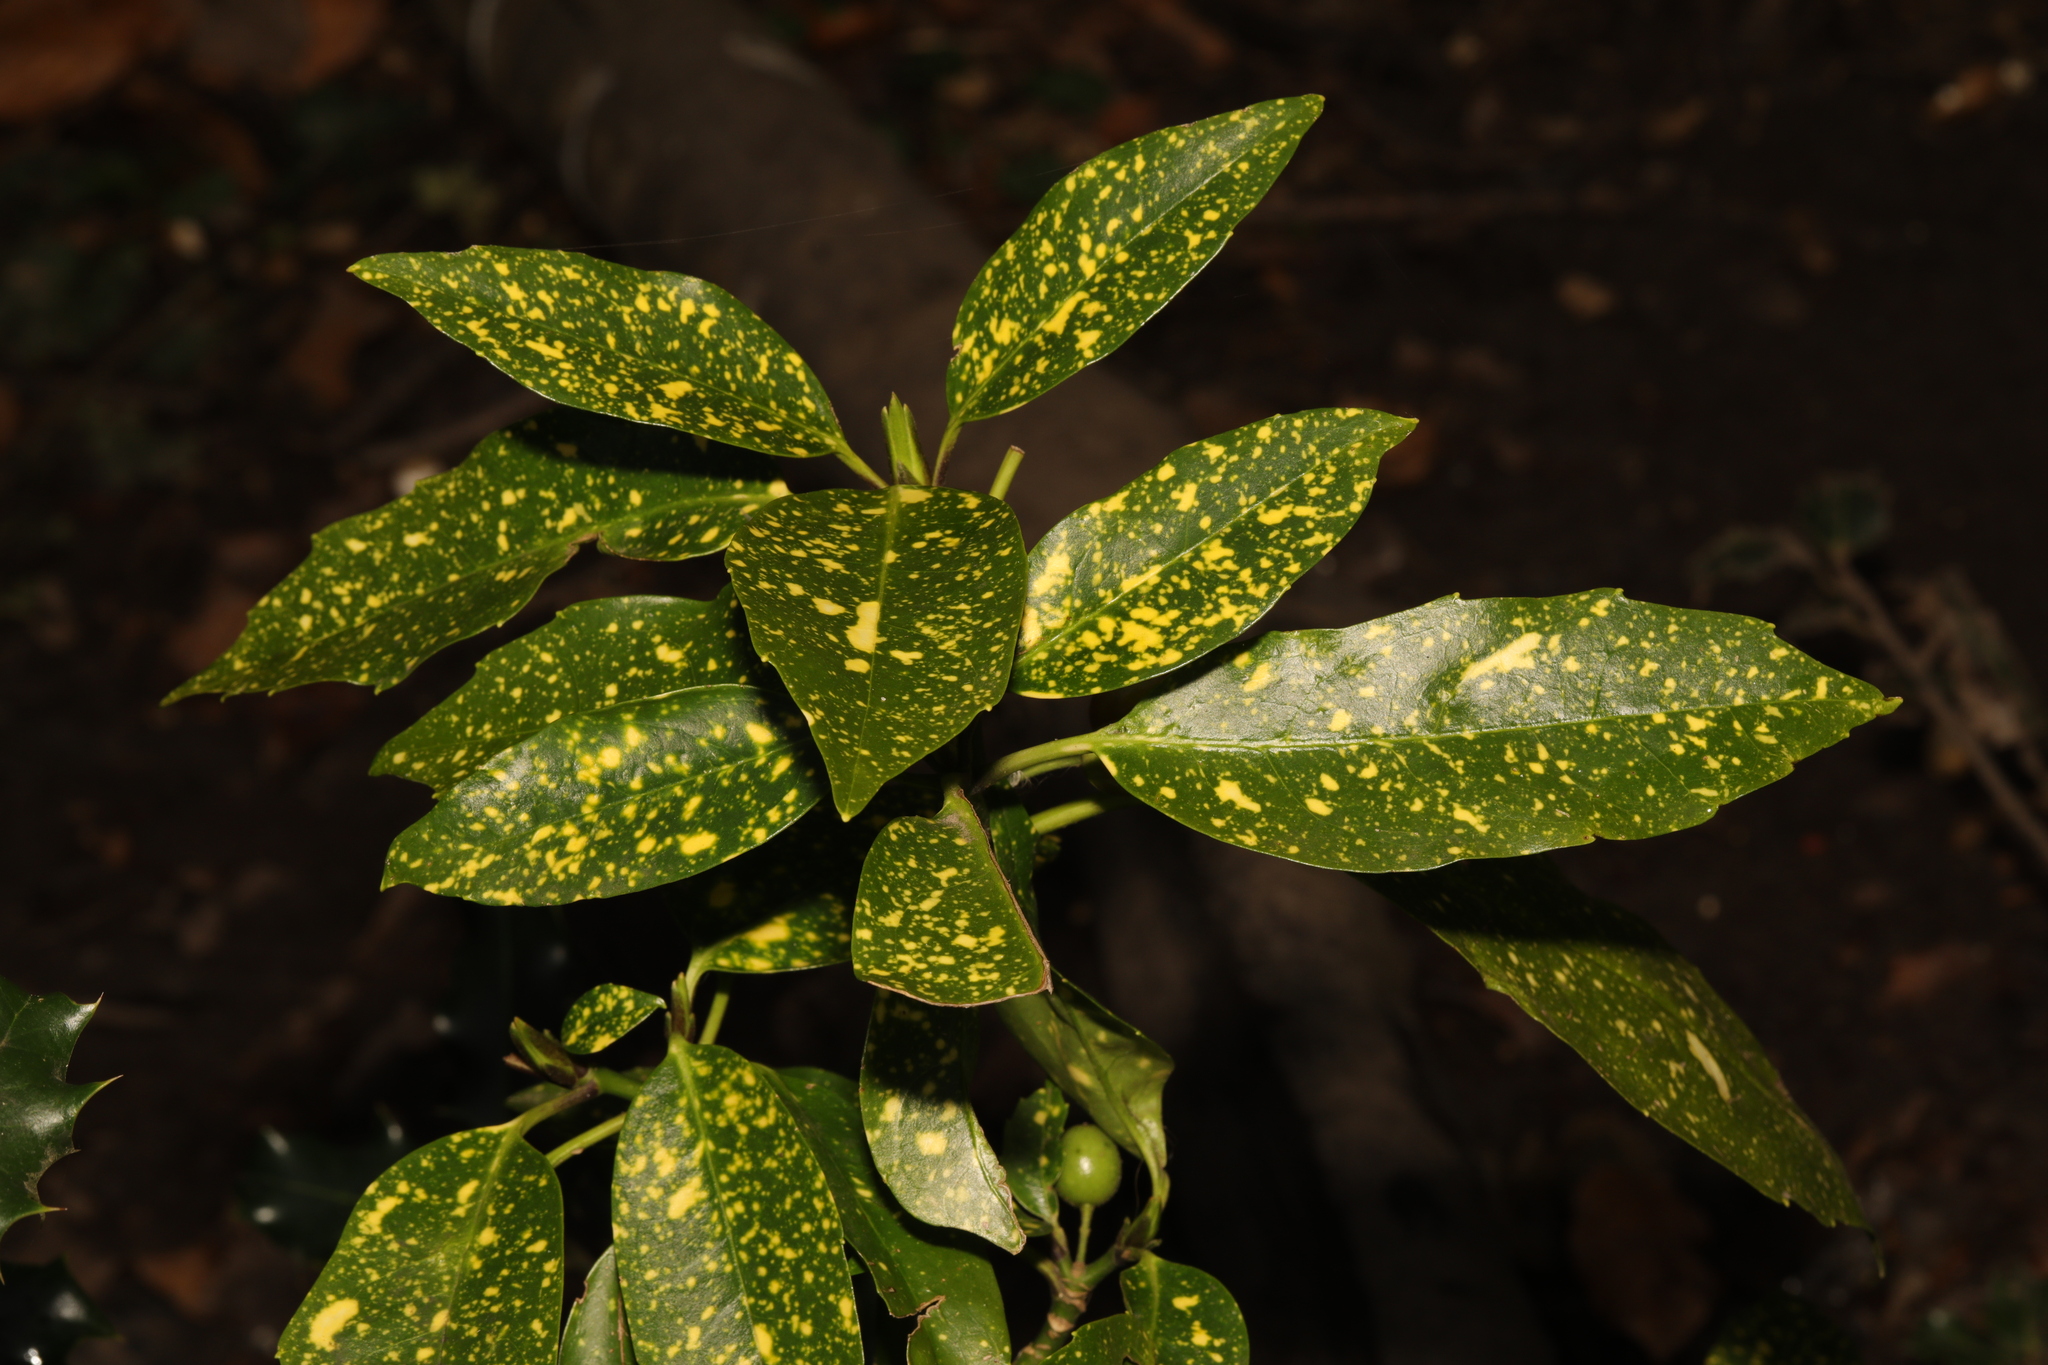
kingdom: Plantae
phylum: Tracheophyta
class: Magnoliopsida
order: Garryales
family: Garryaceae
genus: Aucuba
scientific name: Aucuba japonica
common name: Spotted-laurel
